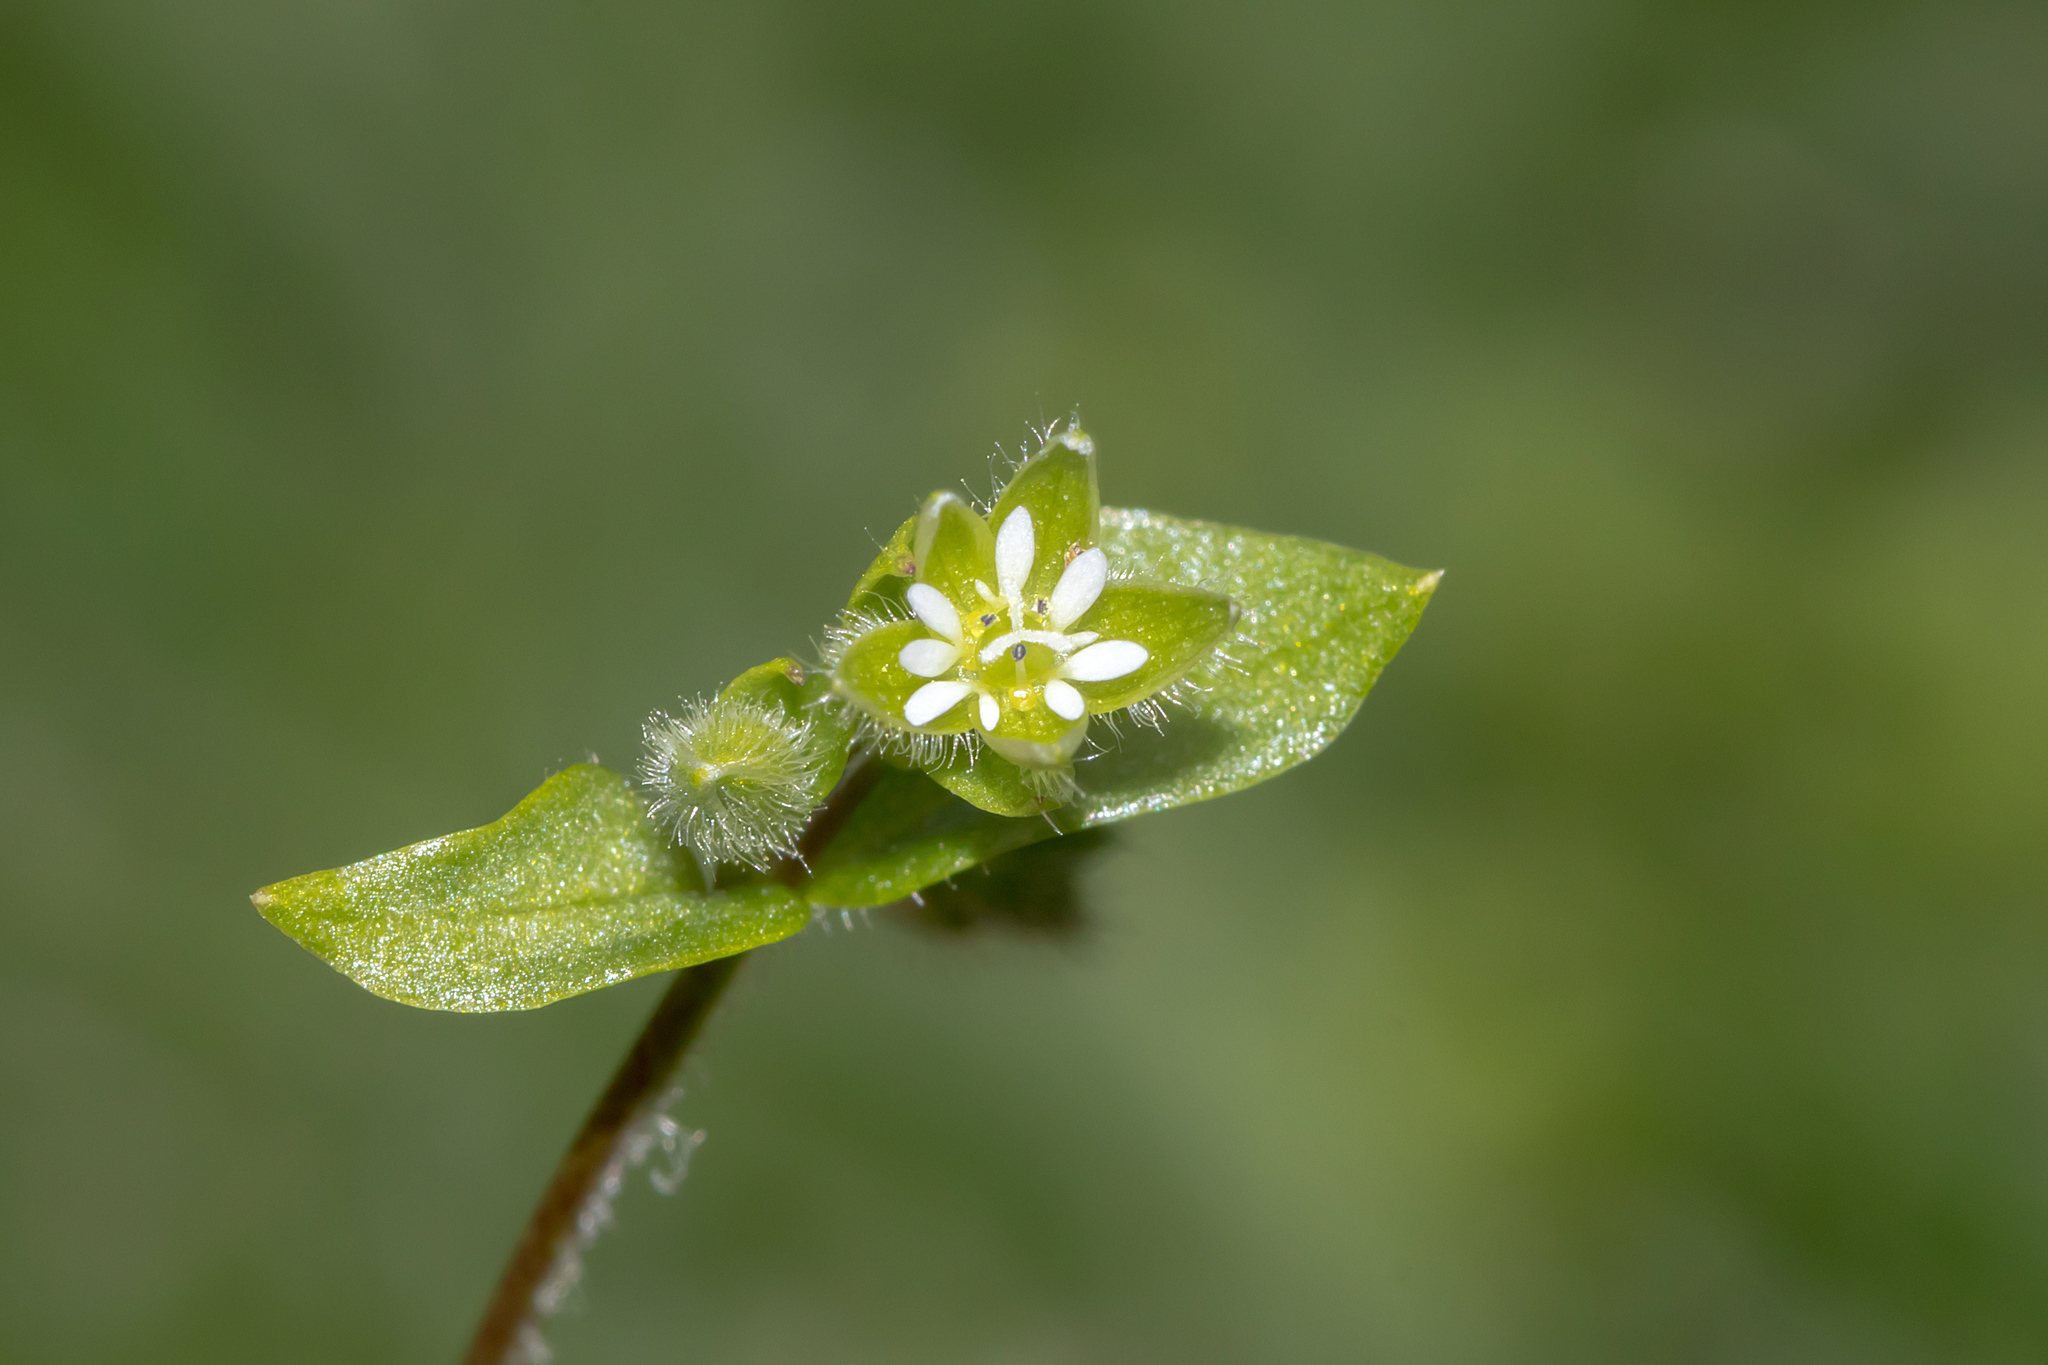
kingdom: Plantae
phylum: Tracheophyta
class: Magnoliopsida
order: Caryophyllales
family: Caryophyllaceae
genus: Stellaria
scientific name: Stellaria media
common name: Common chickweed
